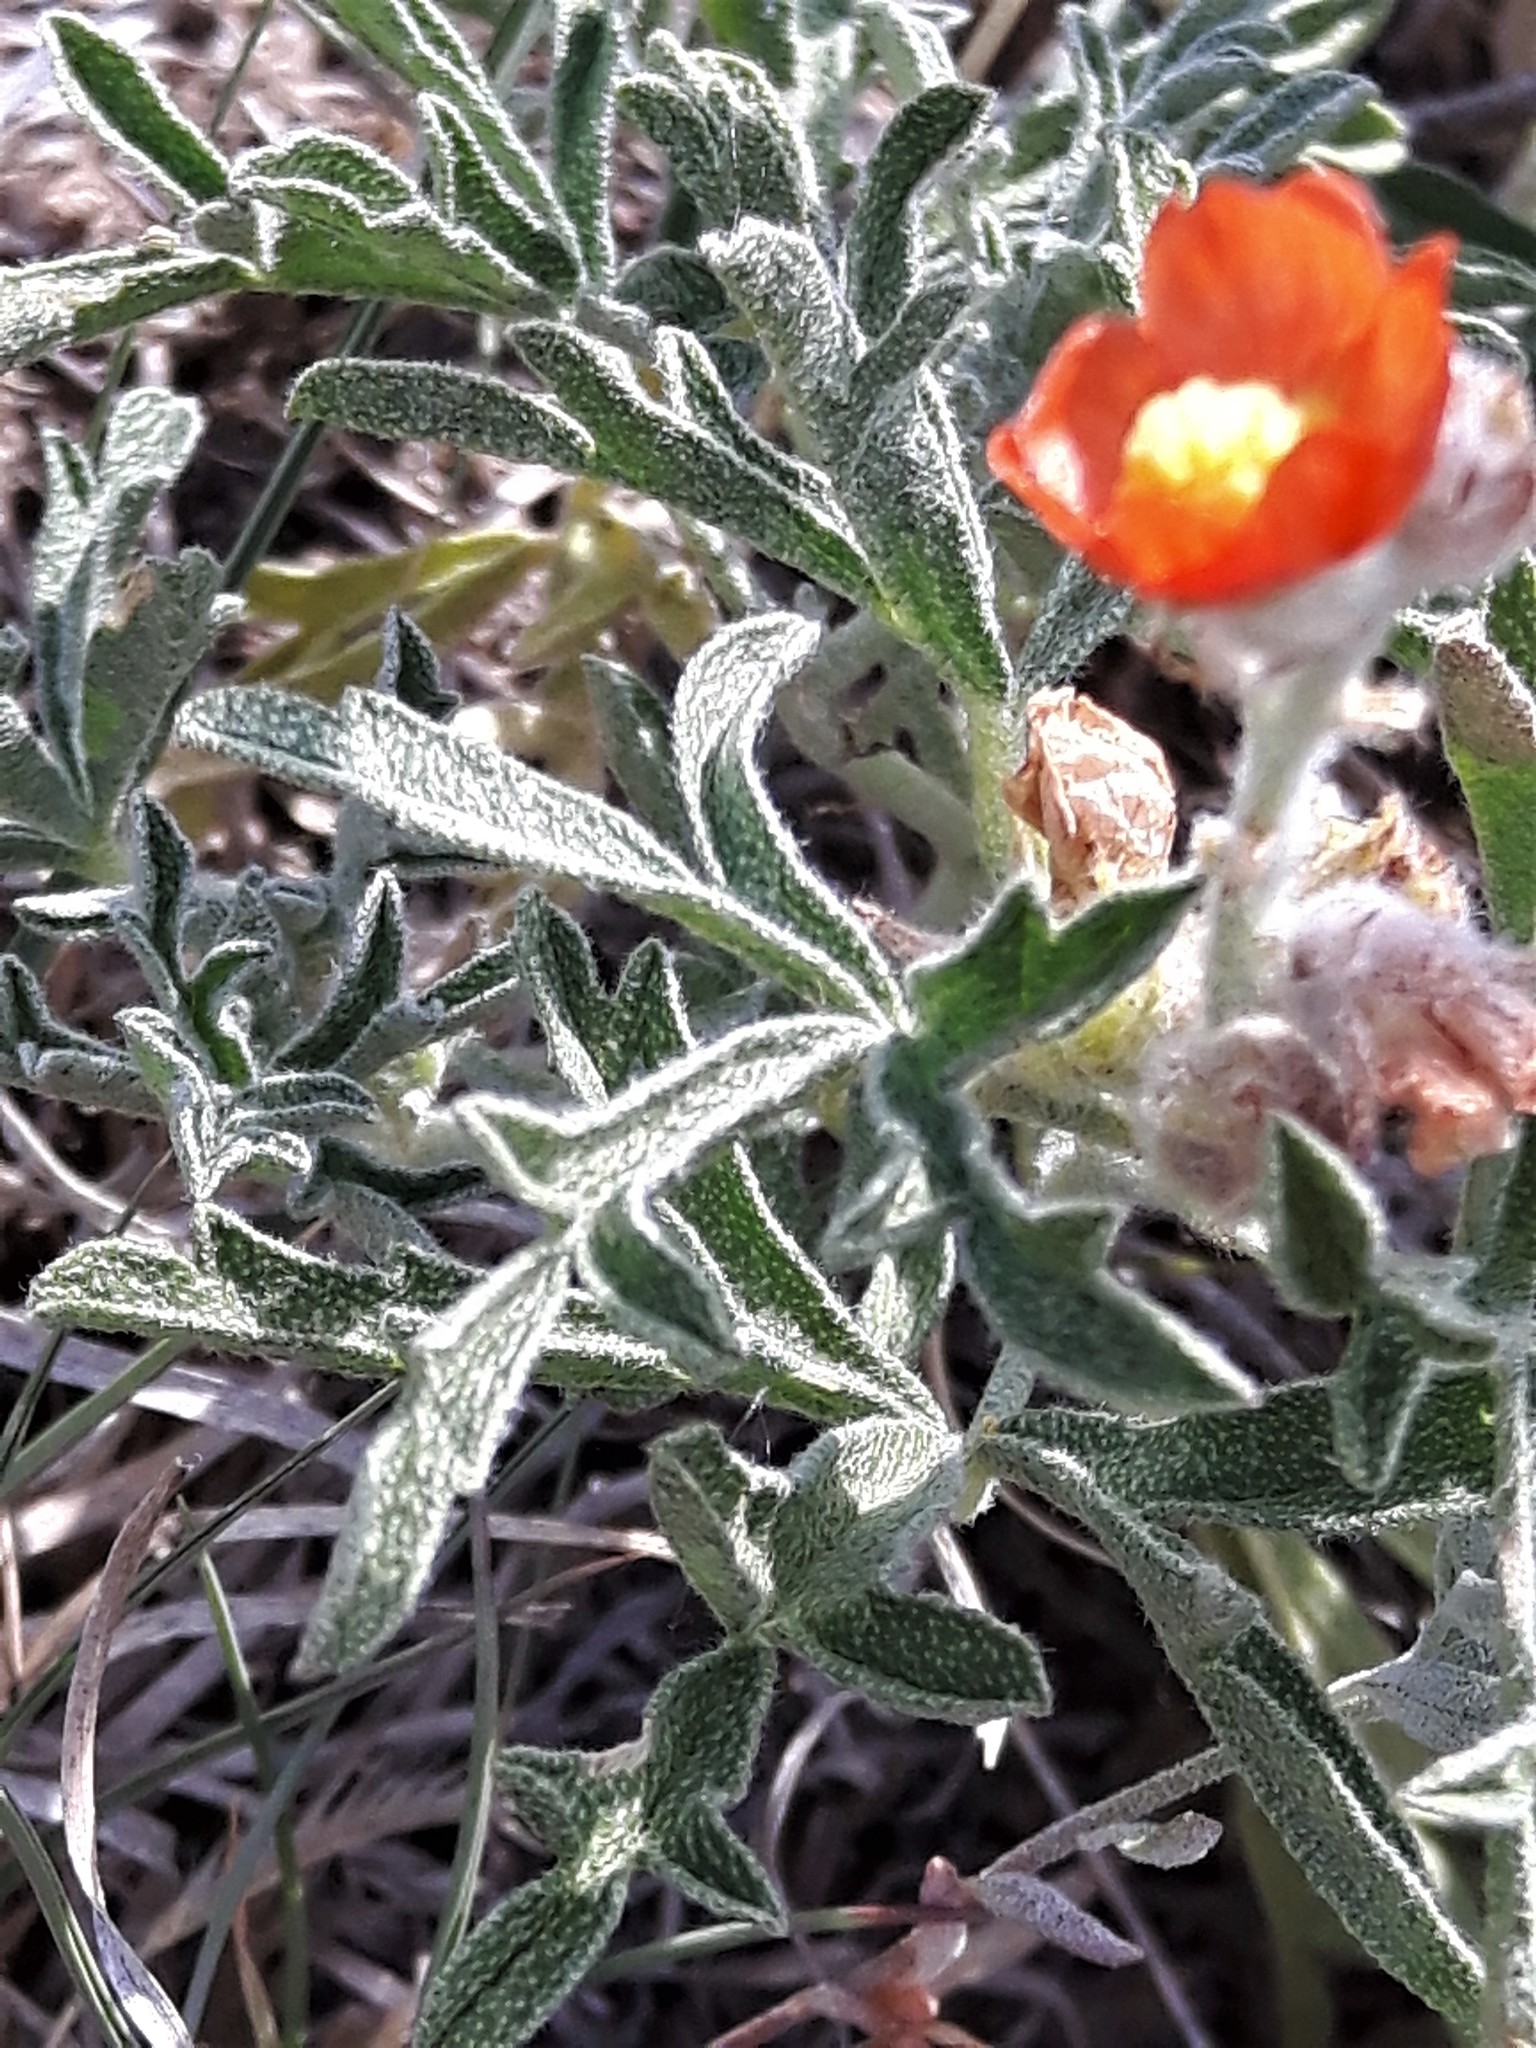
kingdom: Plantae
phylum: Tracheophyta
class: Magnoliopsida
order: Malvales
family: Malvaceae
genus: Sphaeralcea
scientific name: Sphaeralcea coccinea
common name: Moss-rose
